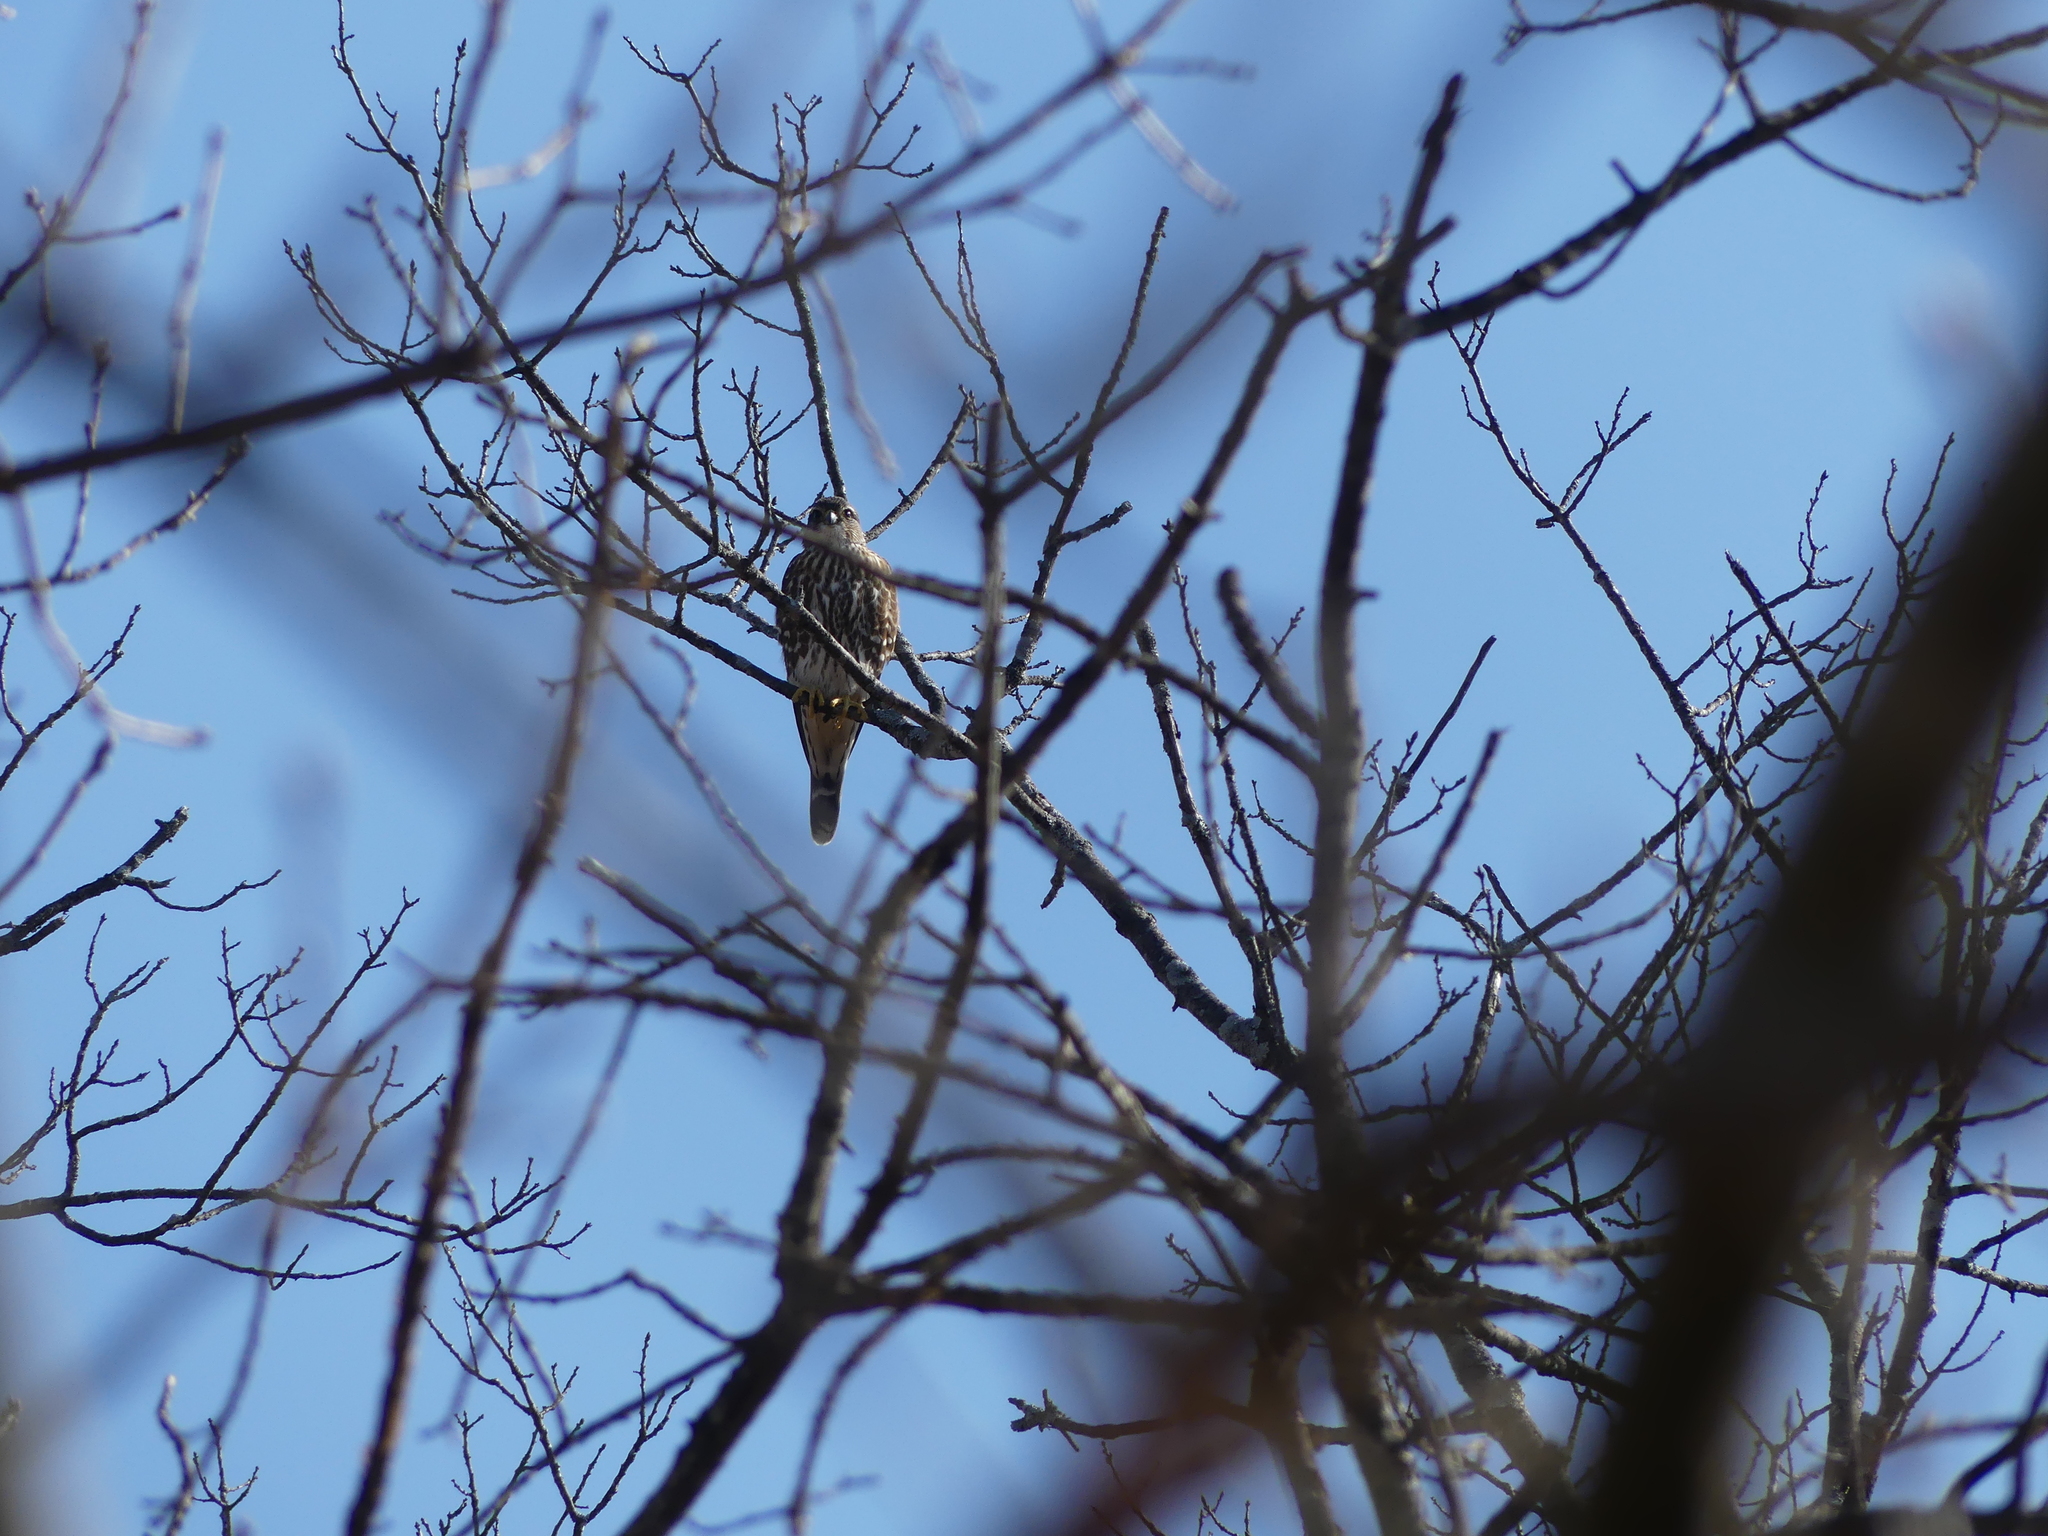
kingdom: Animalia
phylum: Chordata
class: Aves
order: Falconiformes
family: Falconidae
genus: Falco
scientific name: Falco columbarius
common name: Merlin
